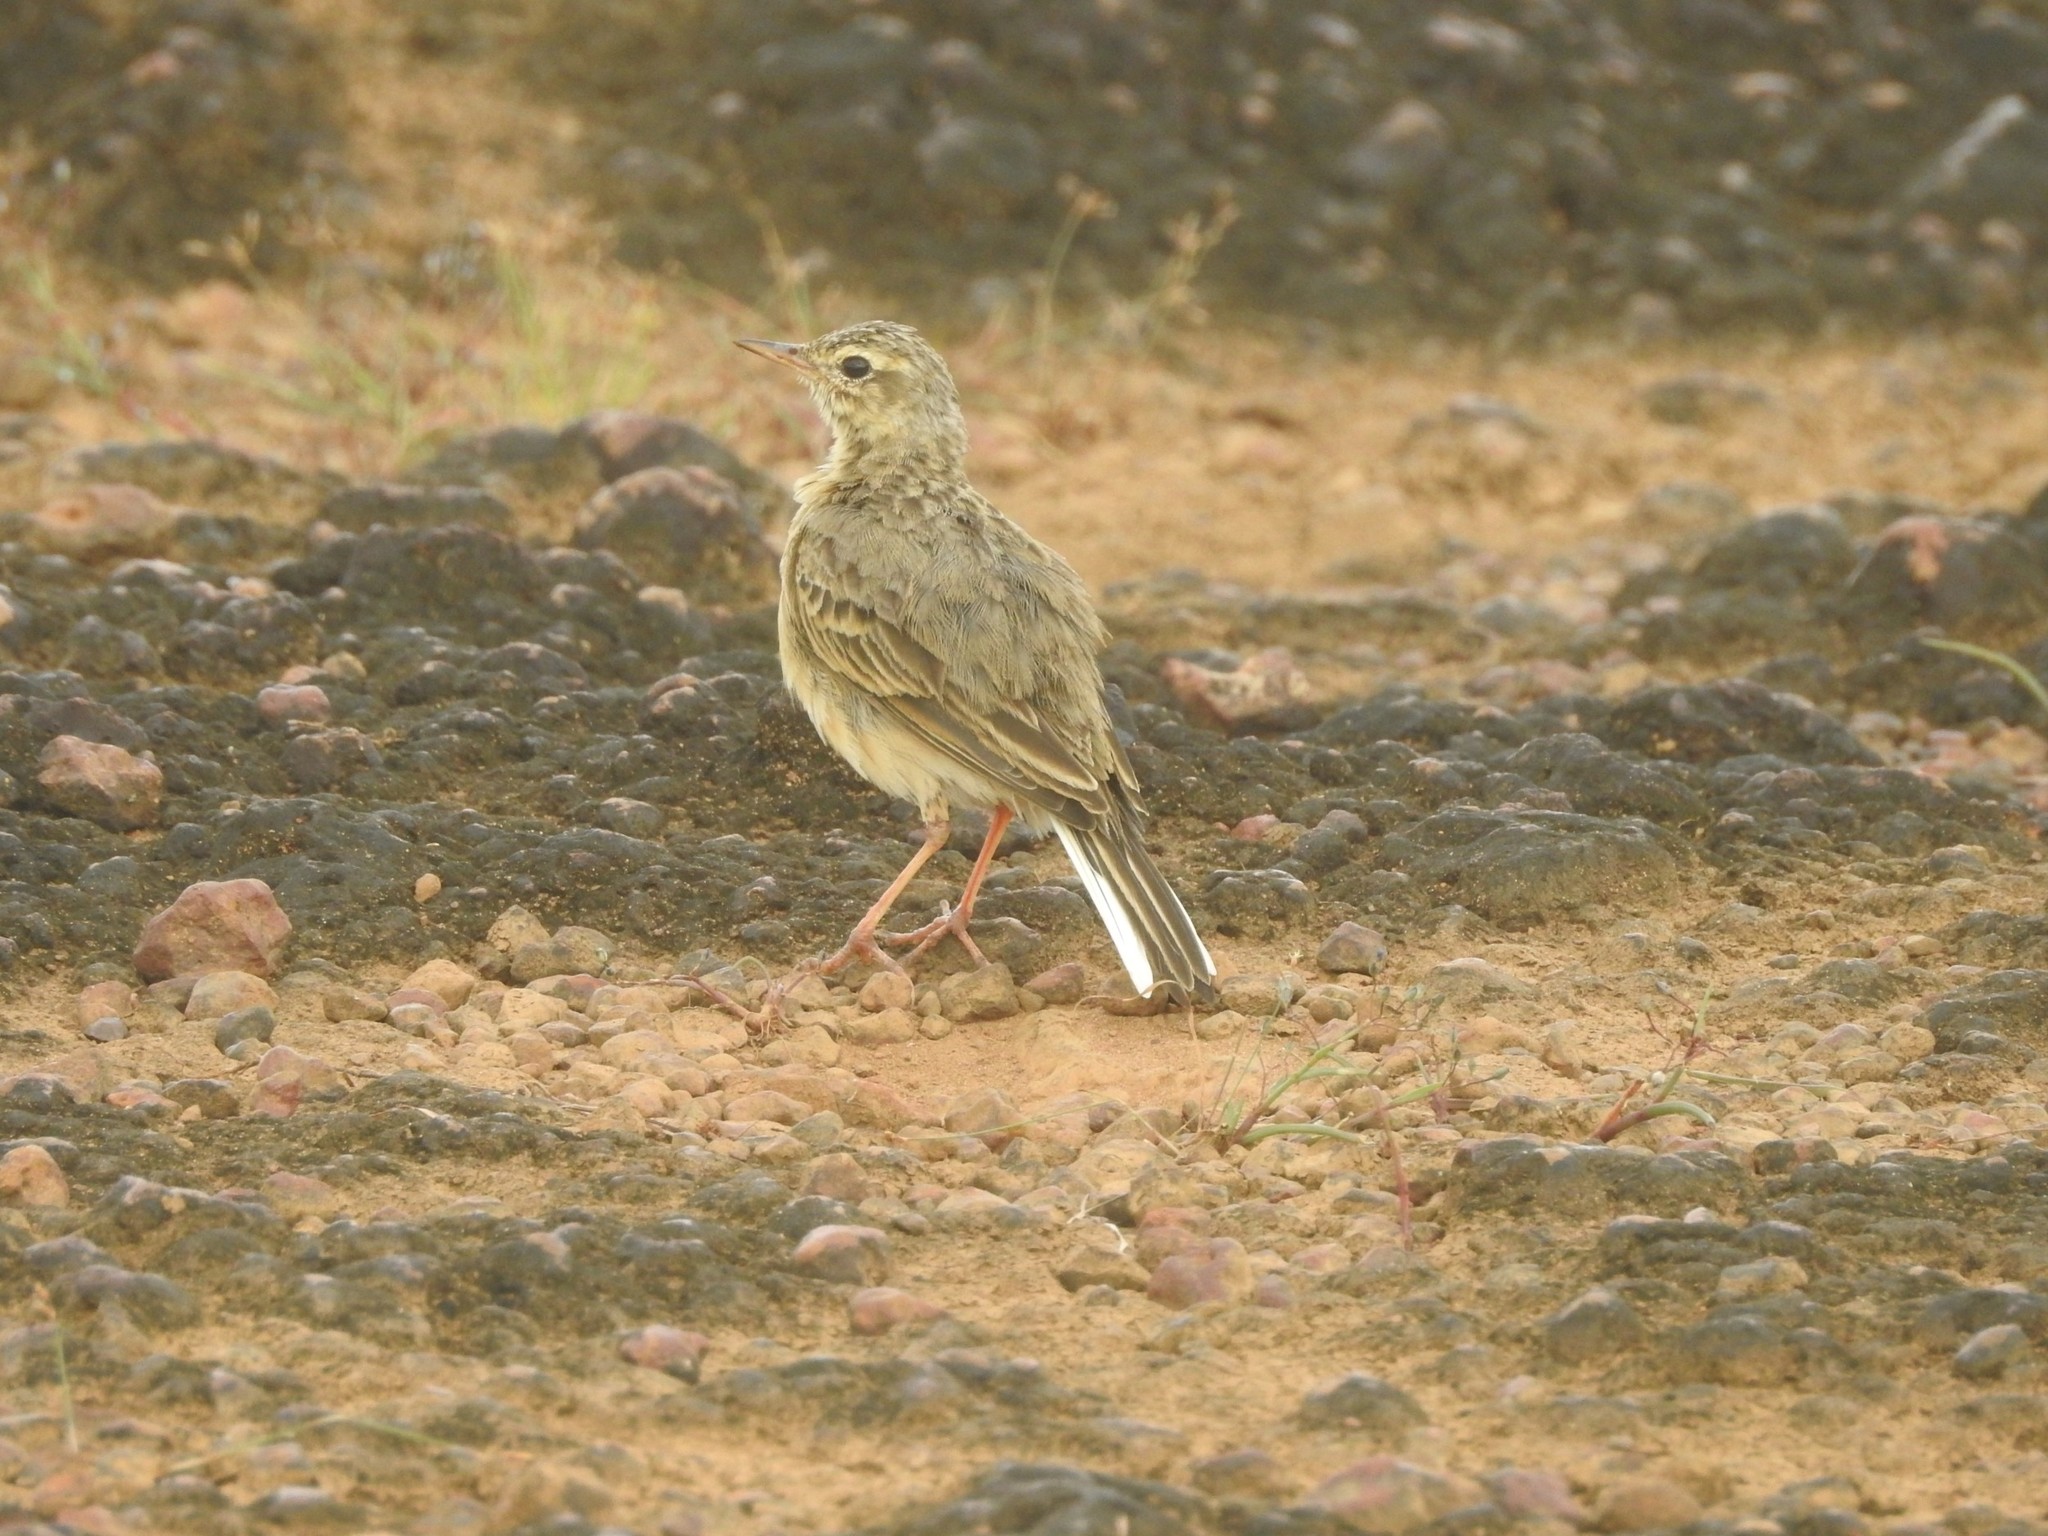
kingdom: Animalia
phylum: Chordata
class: Aves
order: Passeriformes
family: Motacillidae
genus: Anthus
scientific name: Anthus rufulus
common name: Paddyfield pipit
